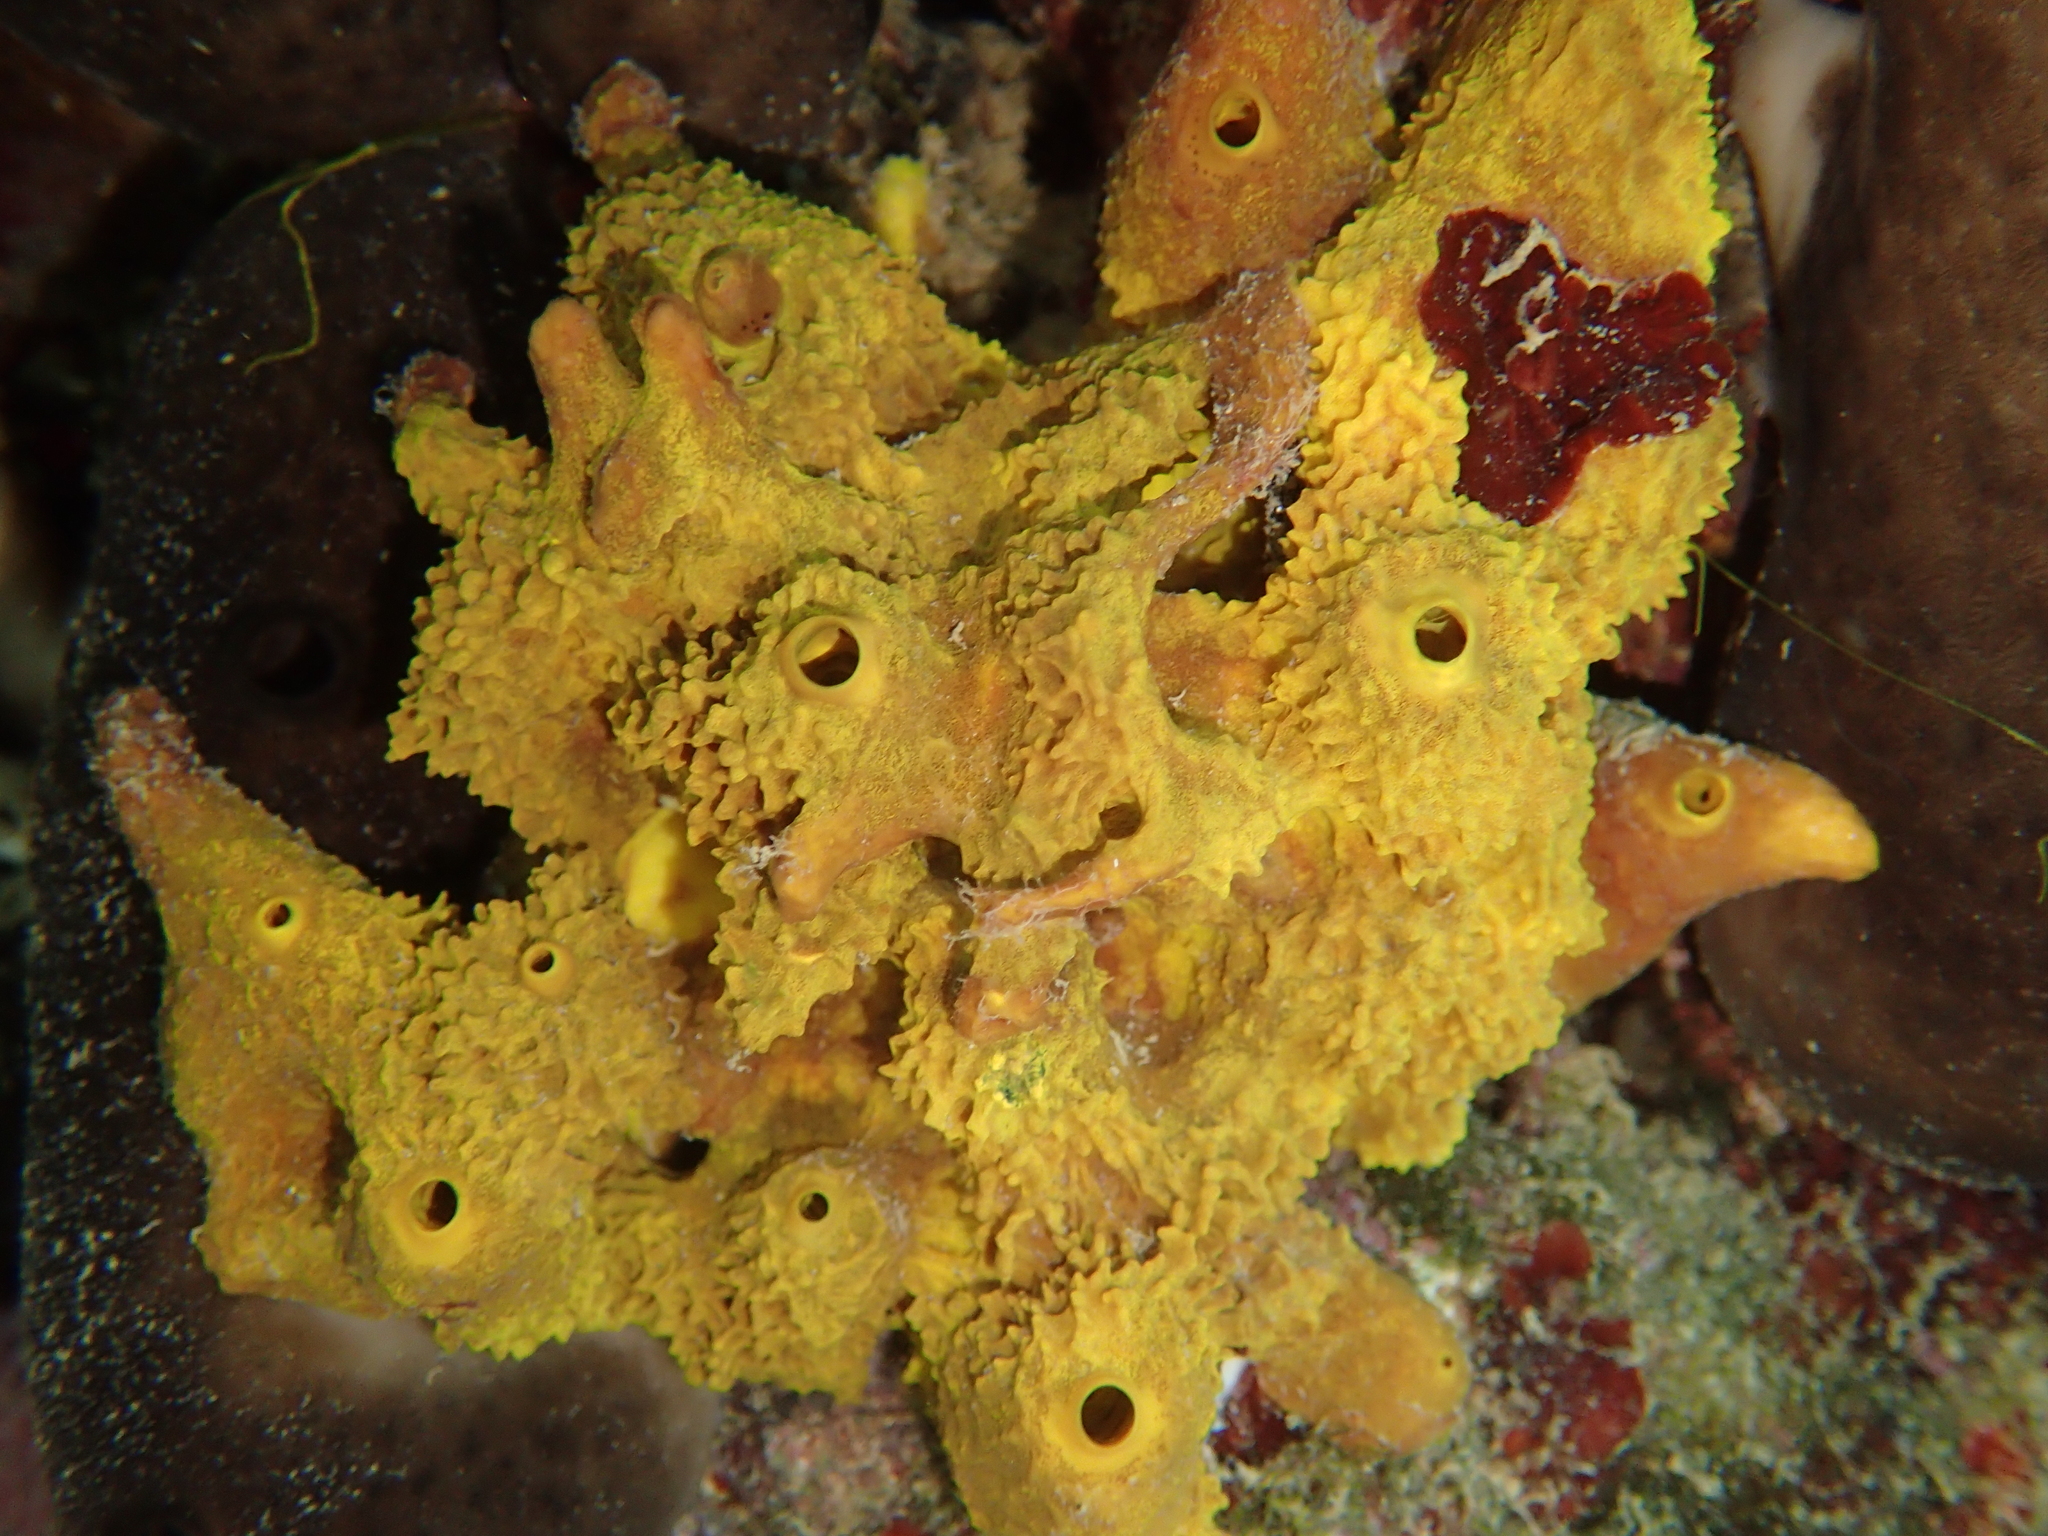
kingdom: Animalia
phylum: Porifera
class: Demospongiae
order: Verongiida
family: Aplysinidae
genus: Aplysina
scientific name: Aplysina aerophoba
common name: Aureate sponge
